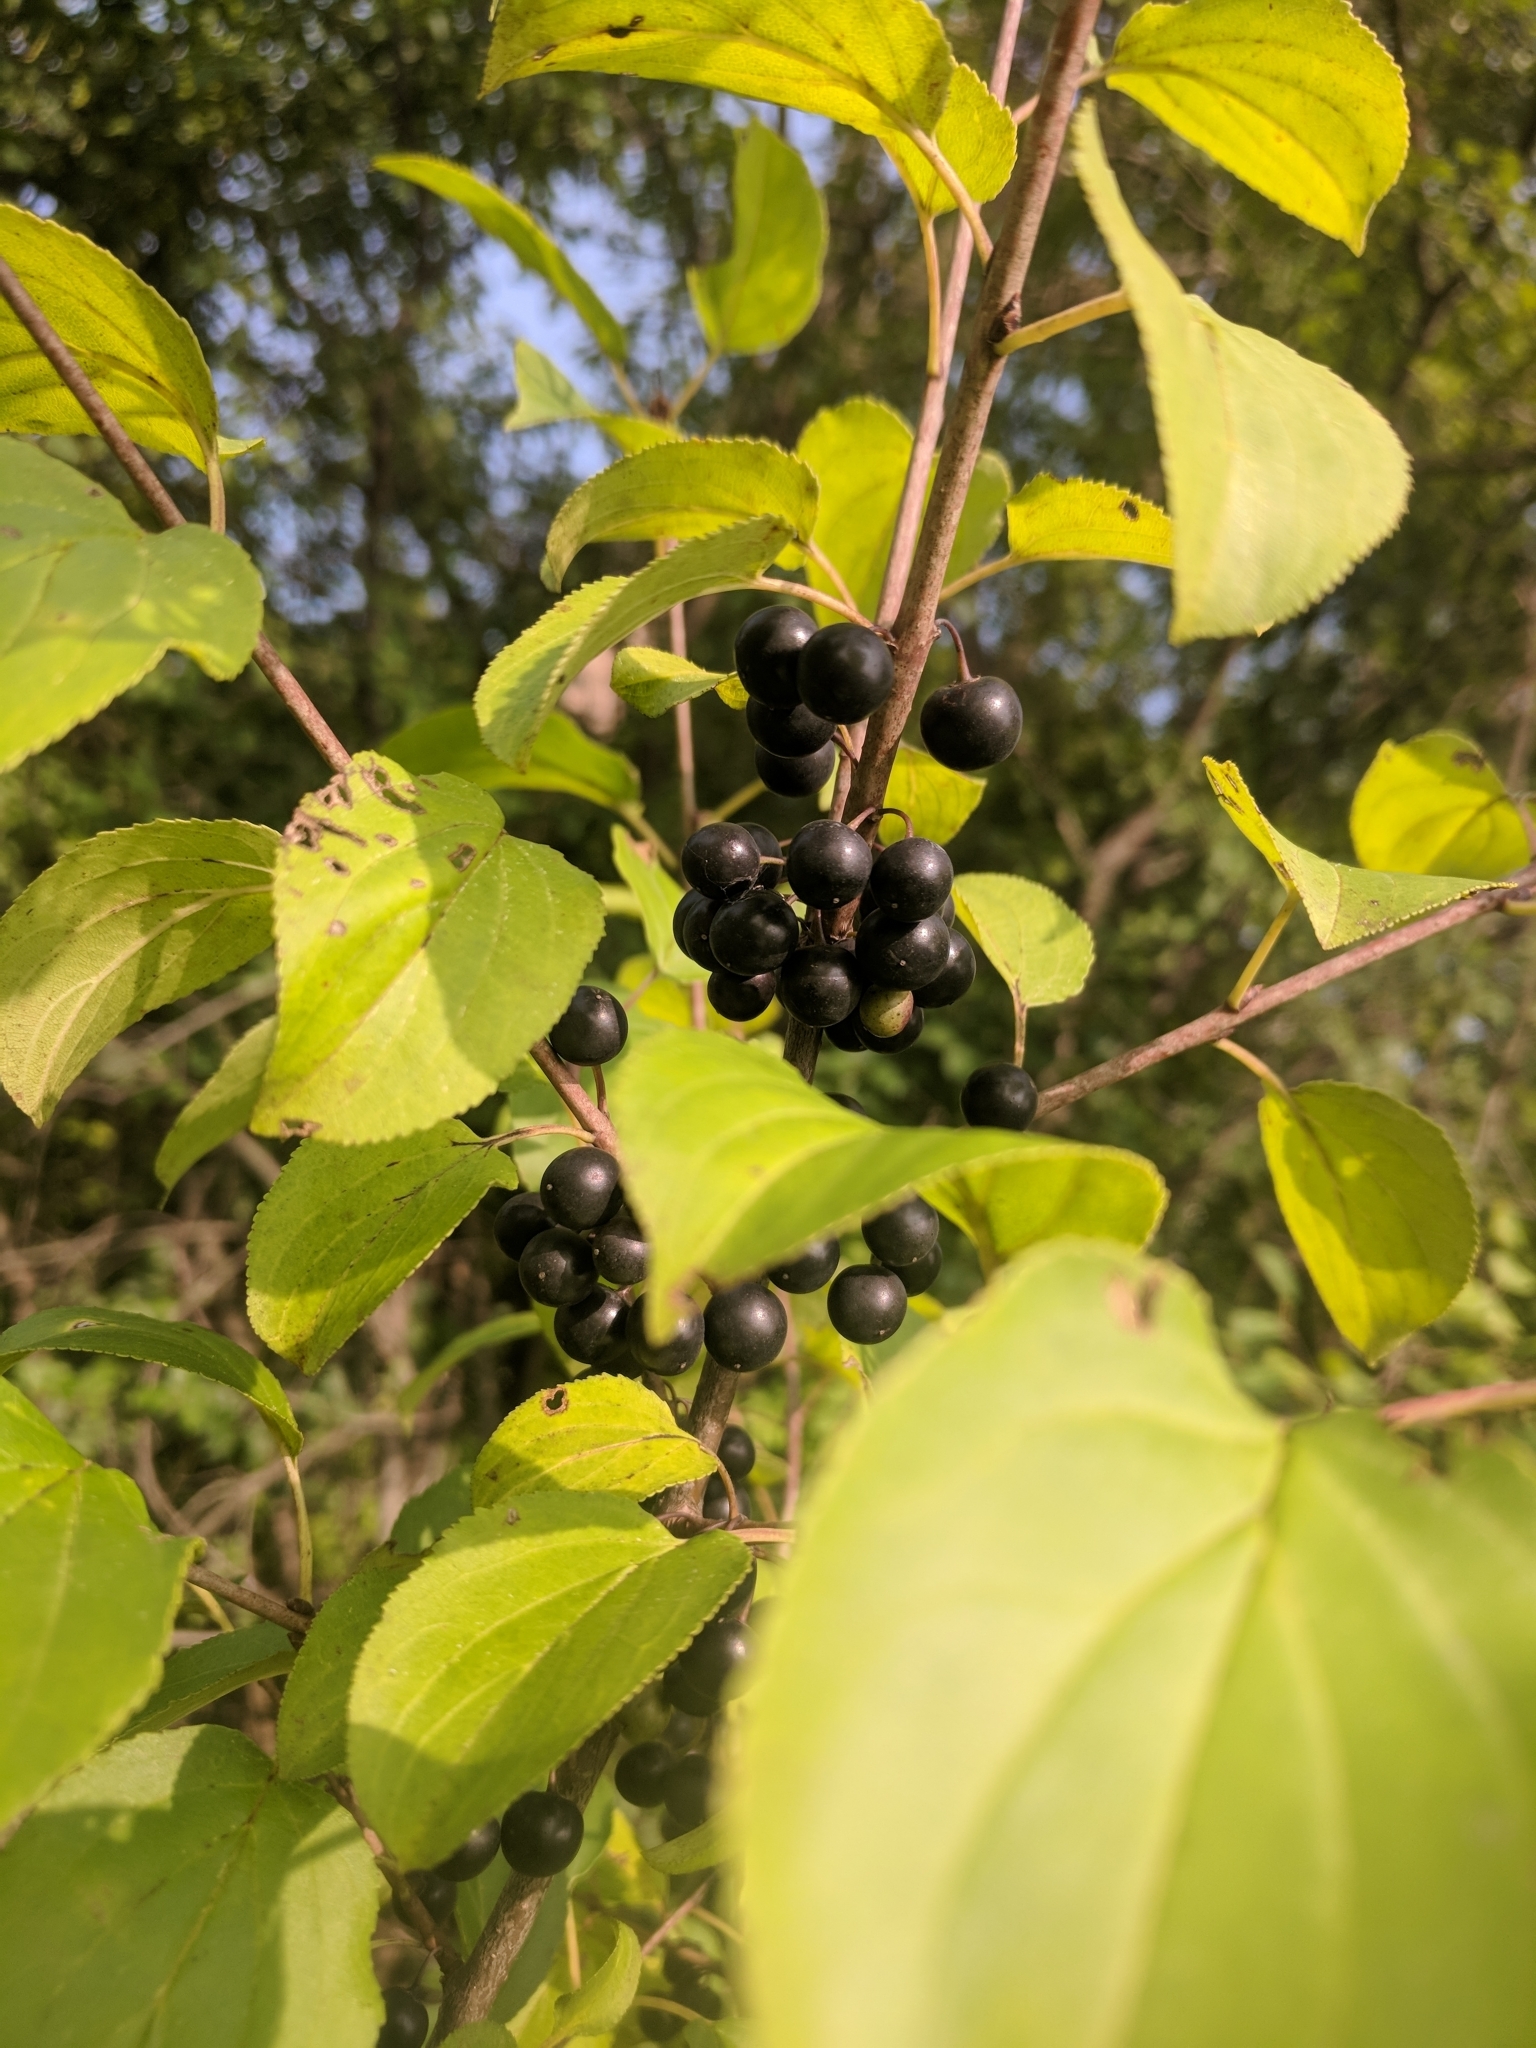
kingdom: Plantae
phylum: Tracheophyta
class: Magnoliopsida
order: Rosales
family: Rhamnaceae
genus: Rhamnus
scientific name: Rhamnus cathartica
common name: Common buckthorn
